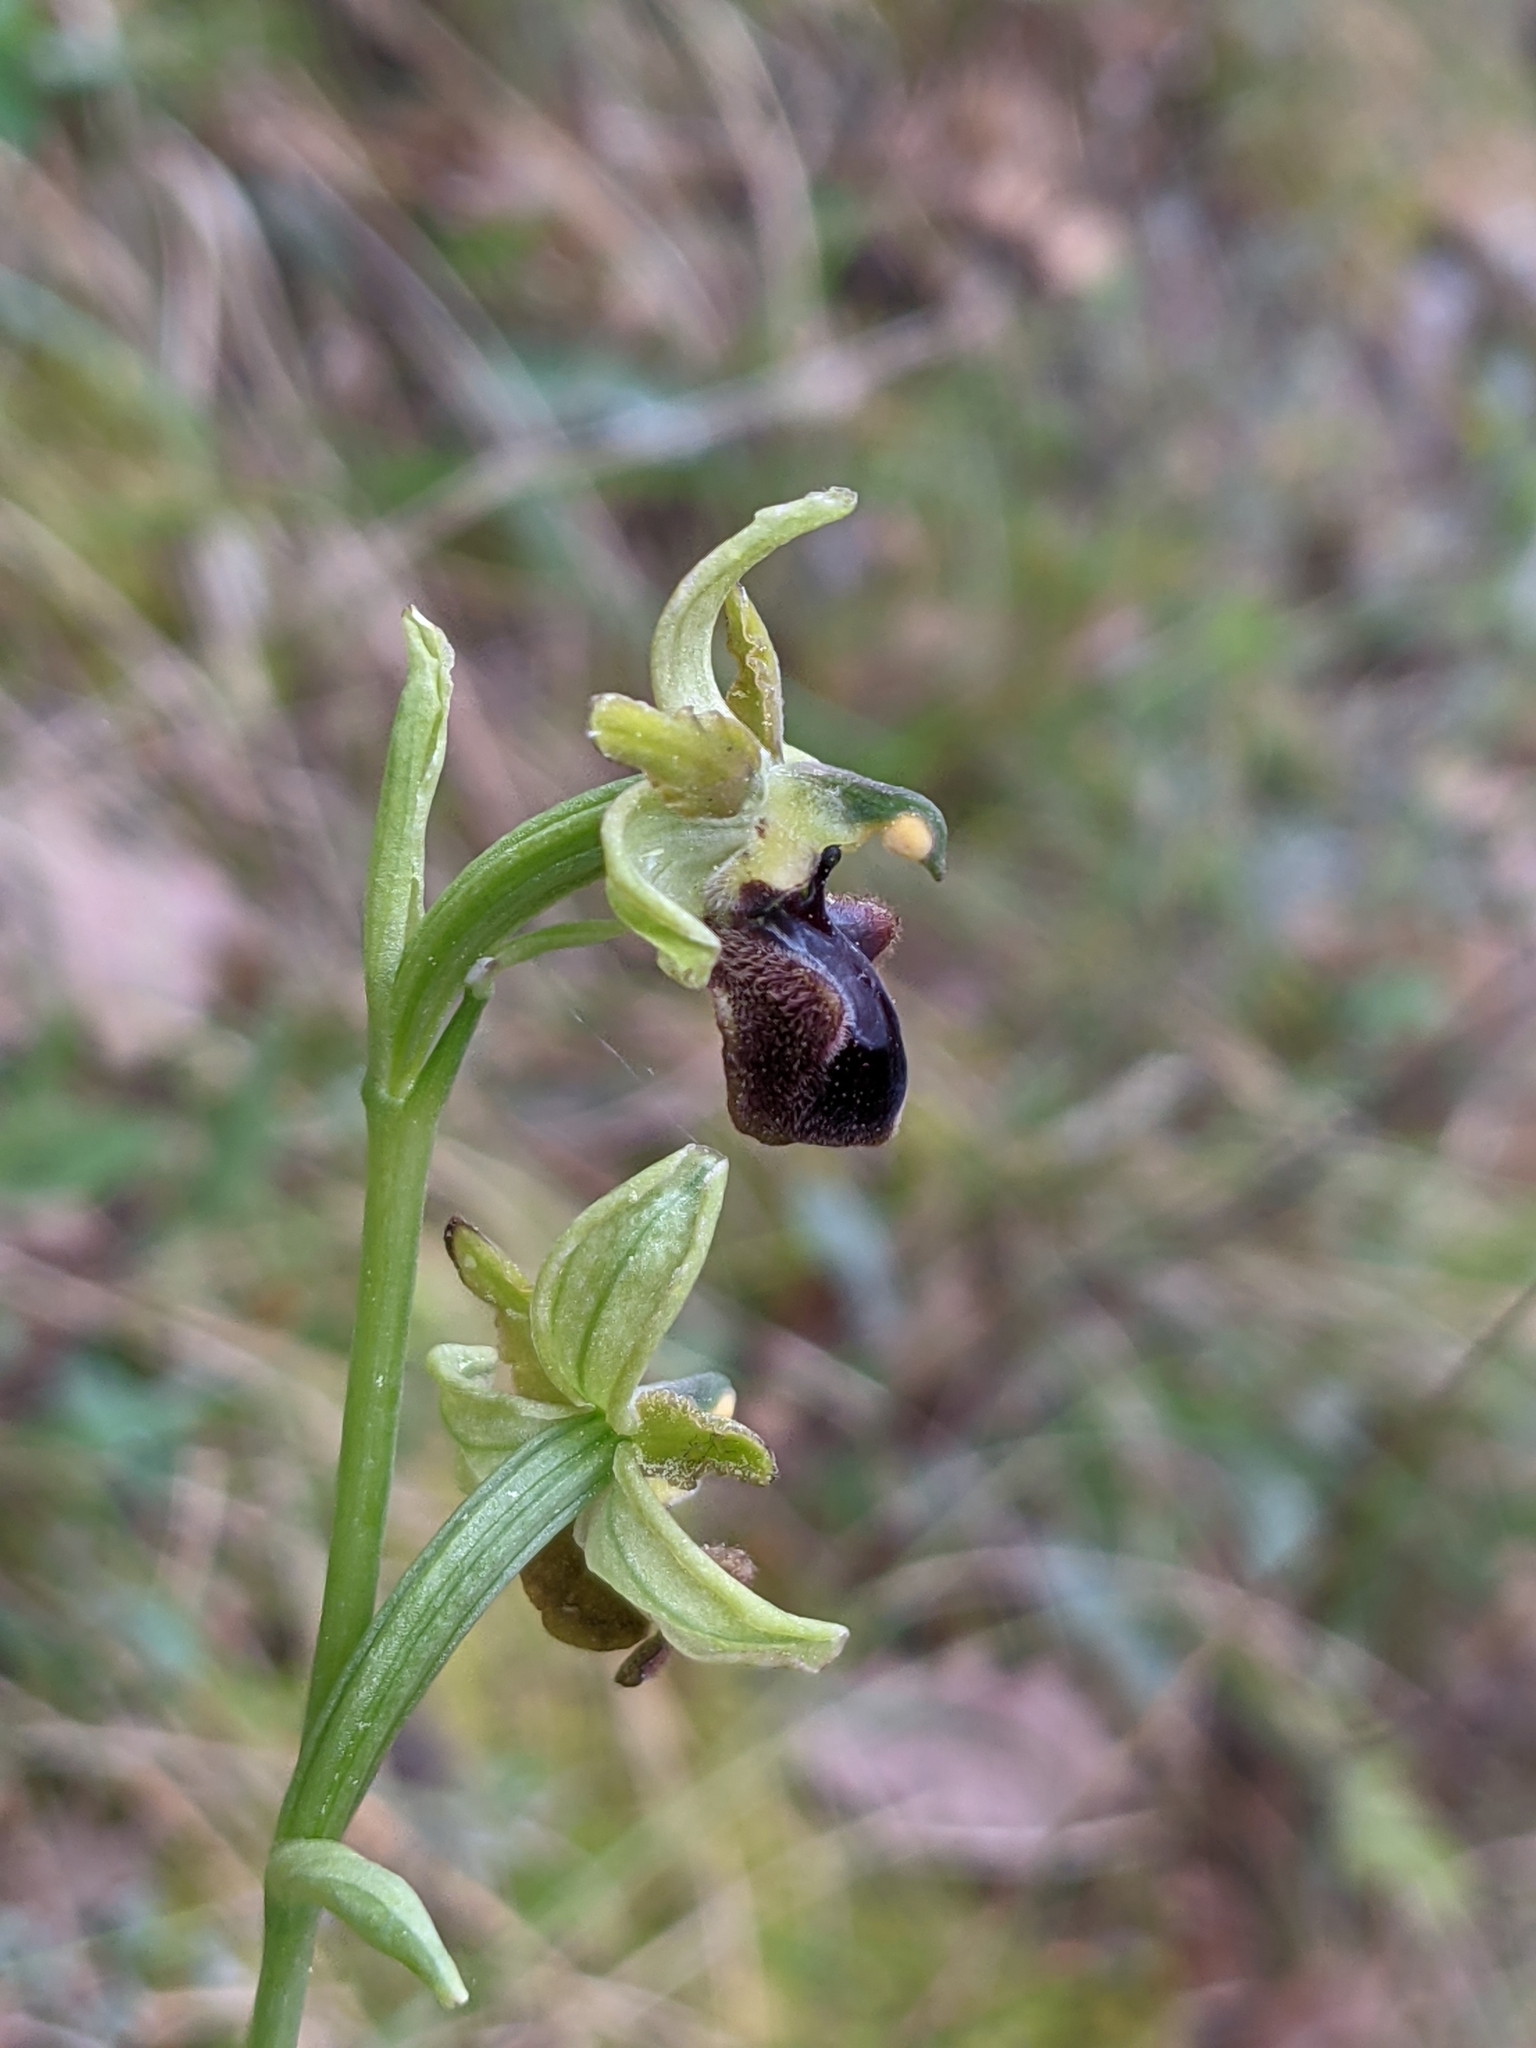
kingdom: Plantae
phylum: Tracheophyta
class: Liliopsida
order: Asparagales
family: Orchidaceae
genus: Ophrys
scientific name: Ophrys sphegodes
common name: Early spider-orchid
